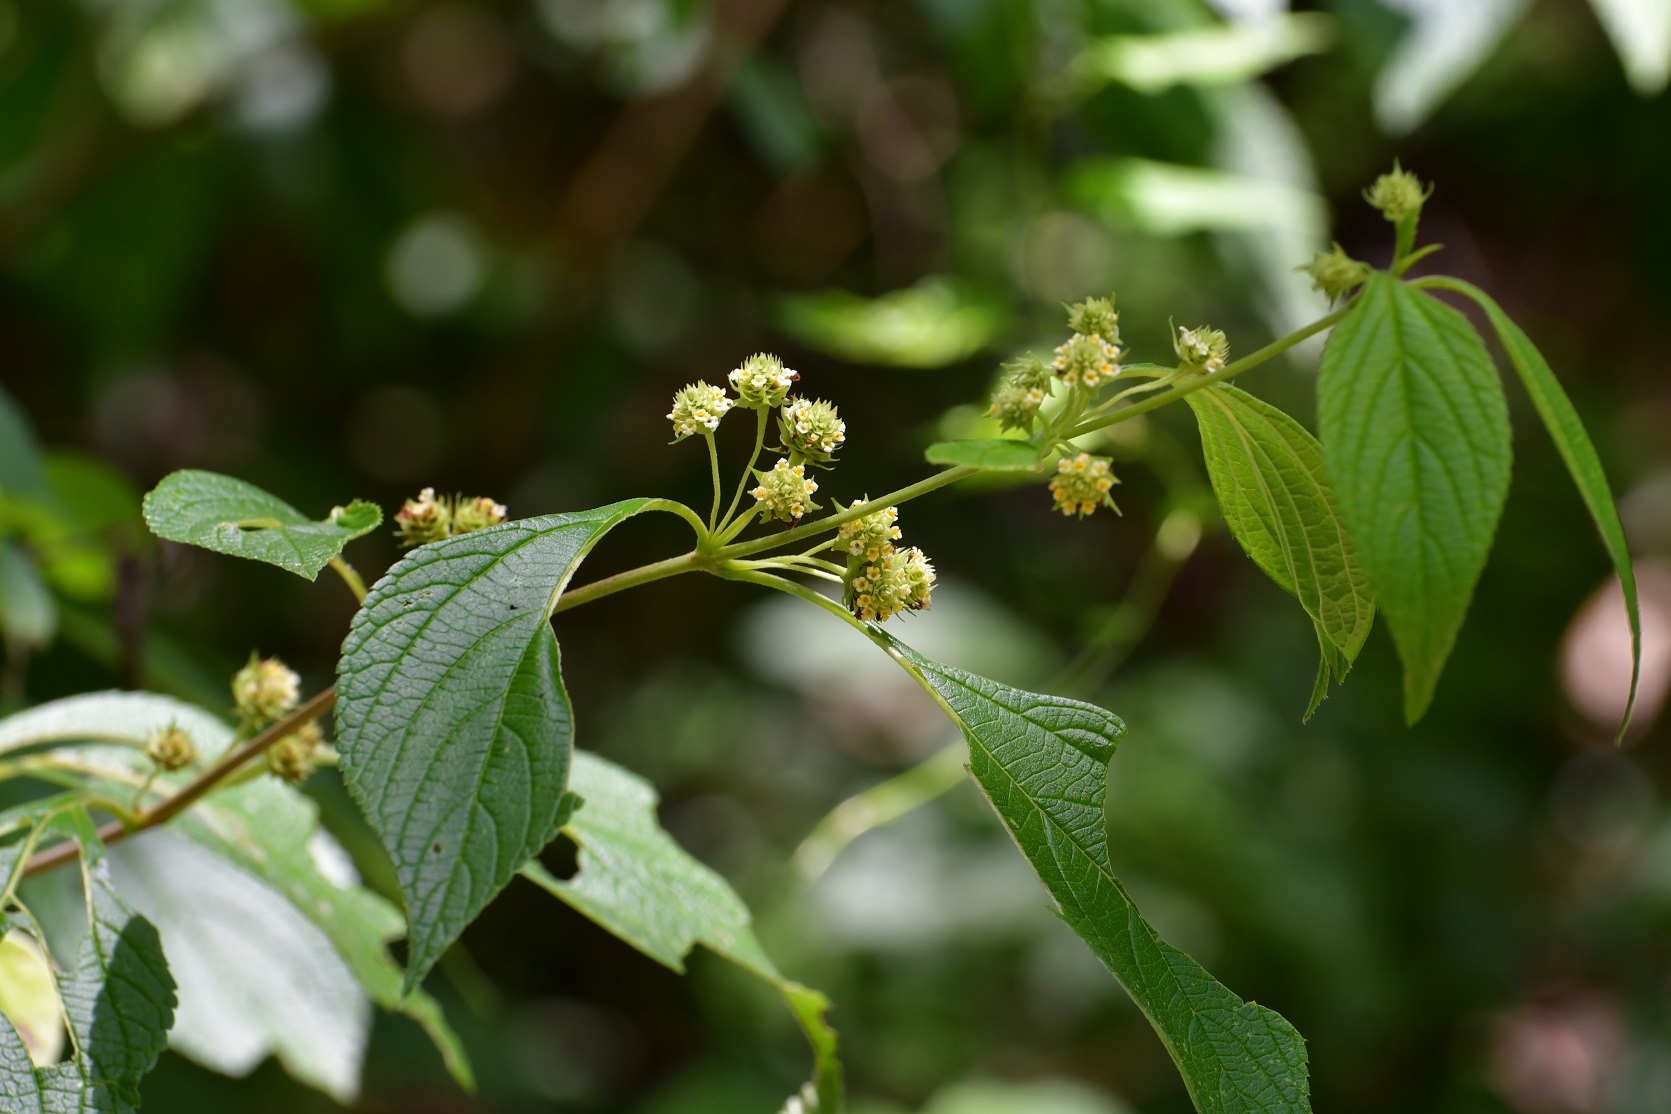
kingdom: Plantae
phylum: Tracheophyta
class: Magnoliopsida
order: Lamiales
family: Verbenaceae
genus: Lippia
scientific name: Lippia cardiostegia
